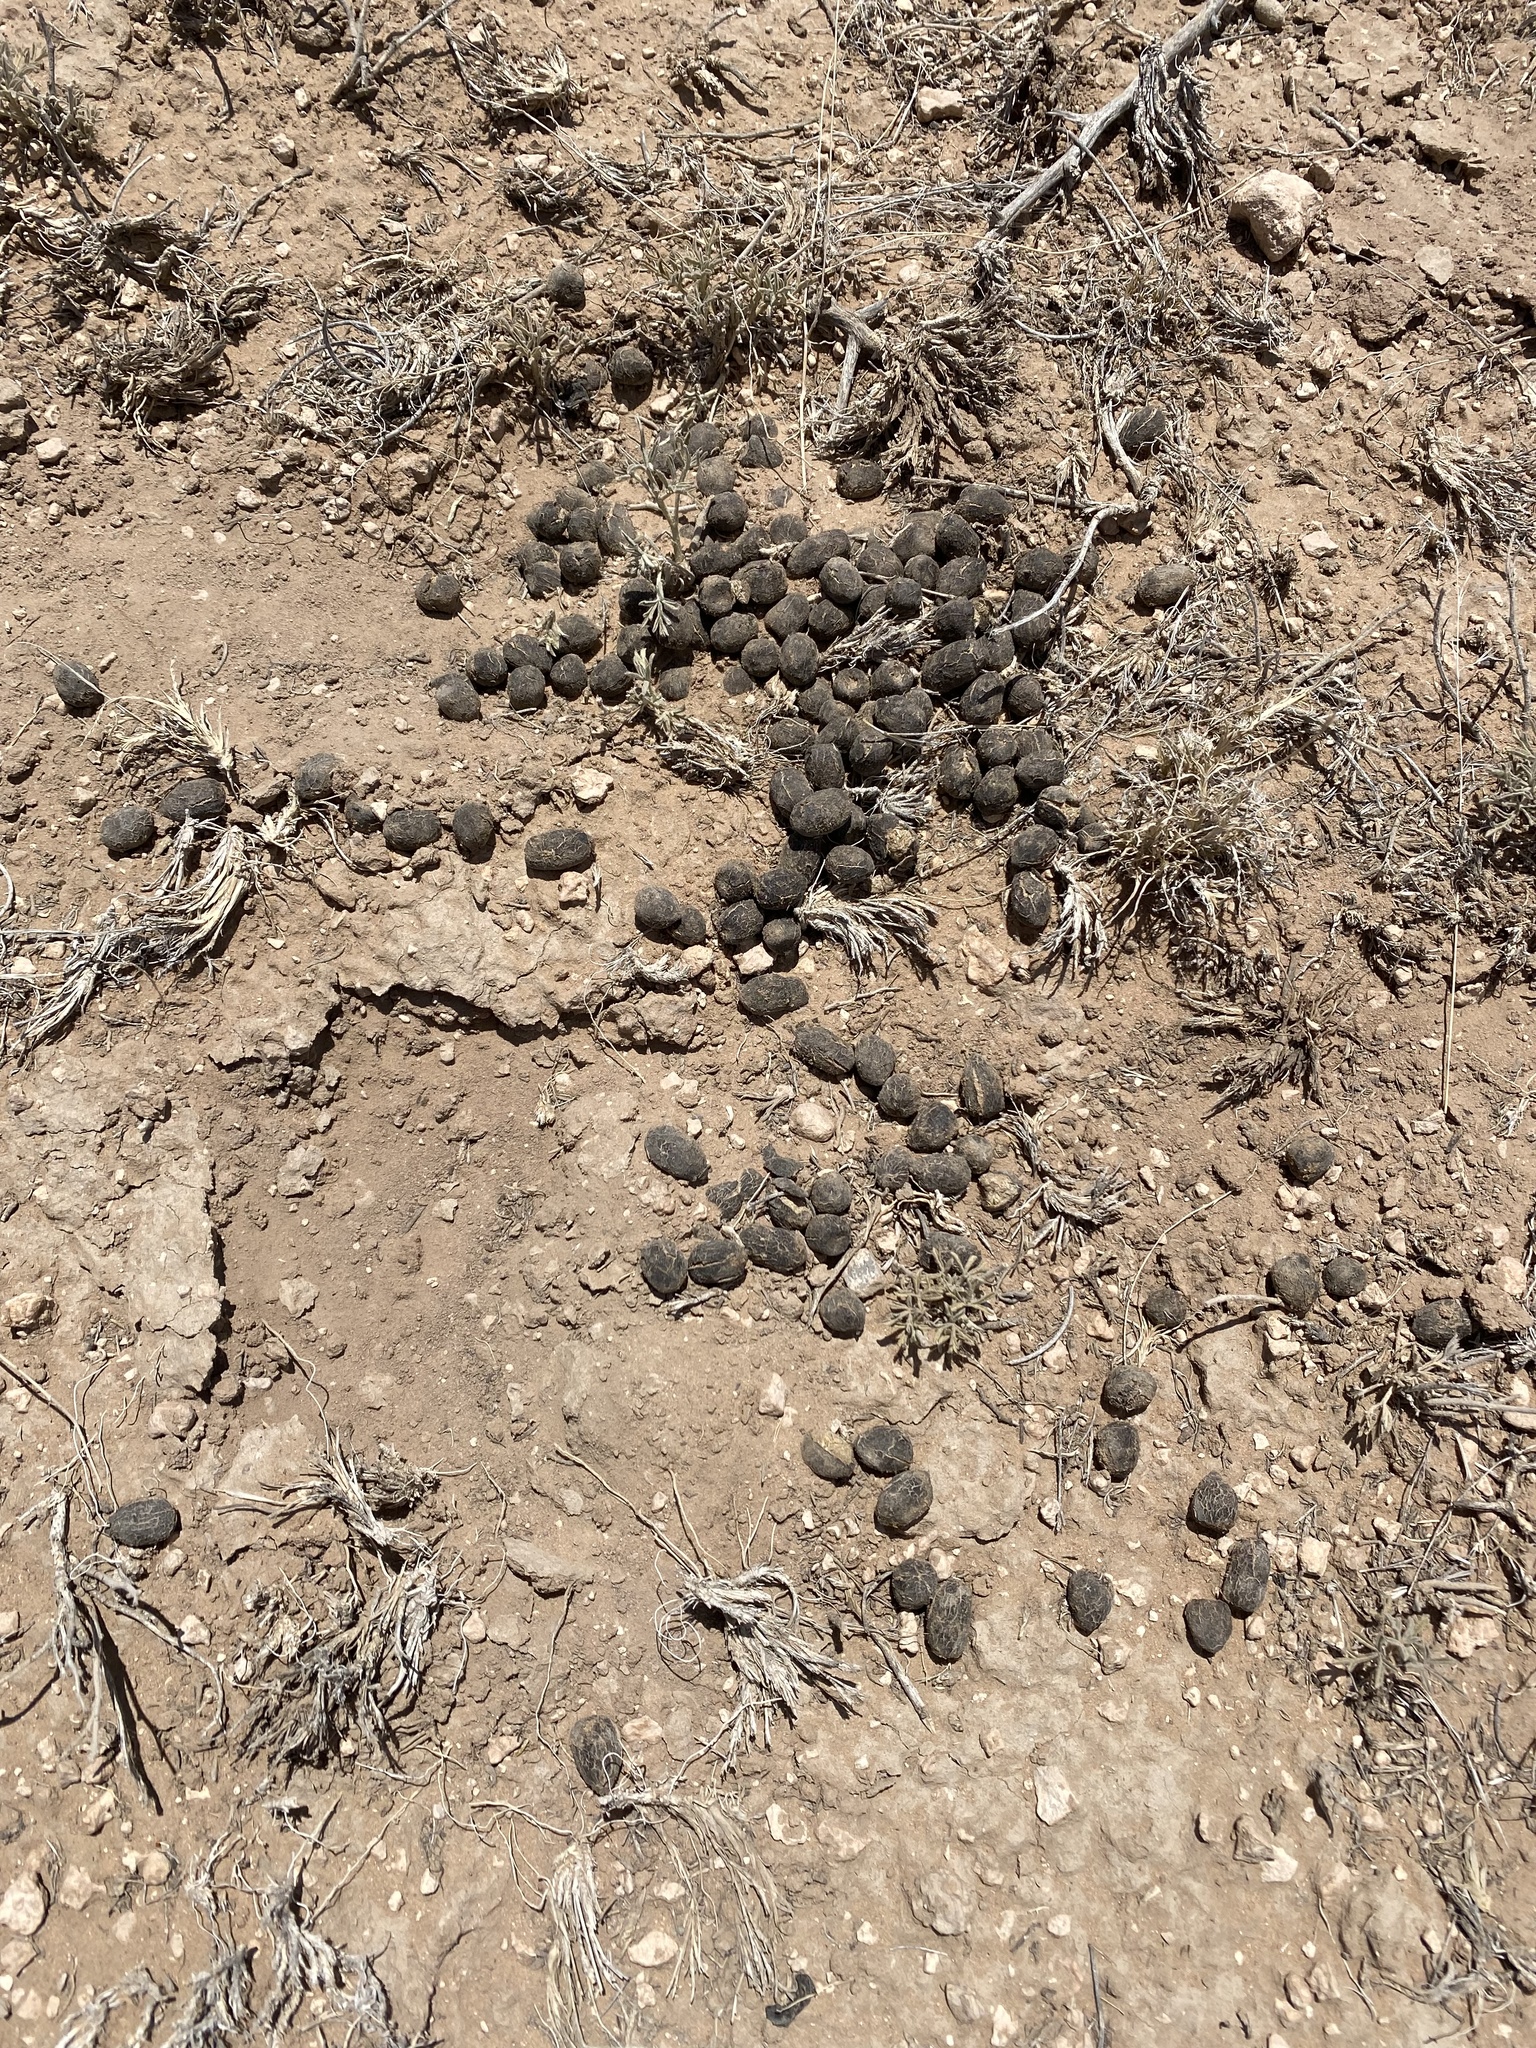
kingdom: Animalia
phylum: Chordata
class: Mammalia
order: Artiodactyla
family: Antilocapridae
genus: Antilocapra
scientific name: Antilocapra americana
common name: Pronghorn
